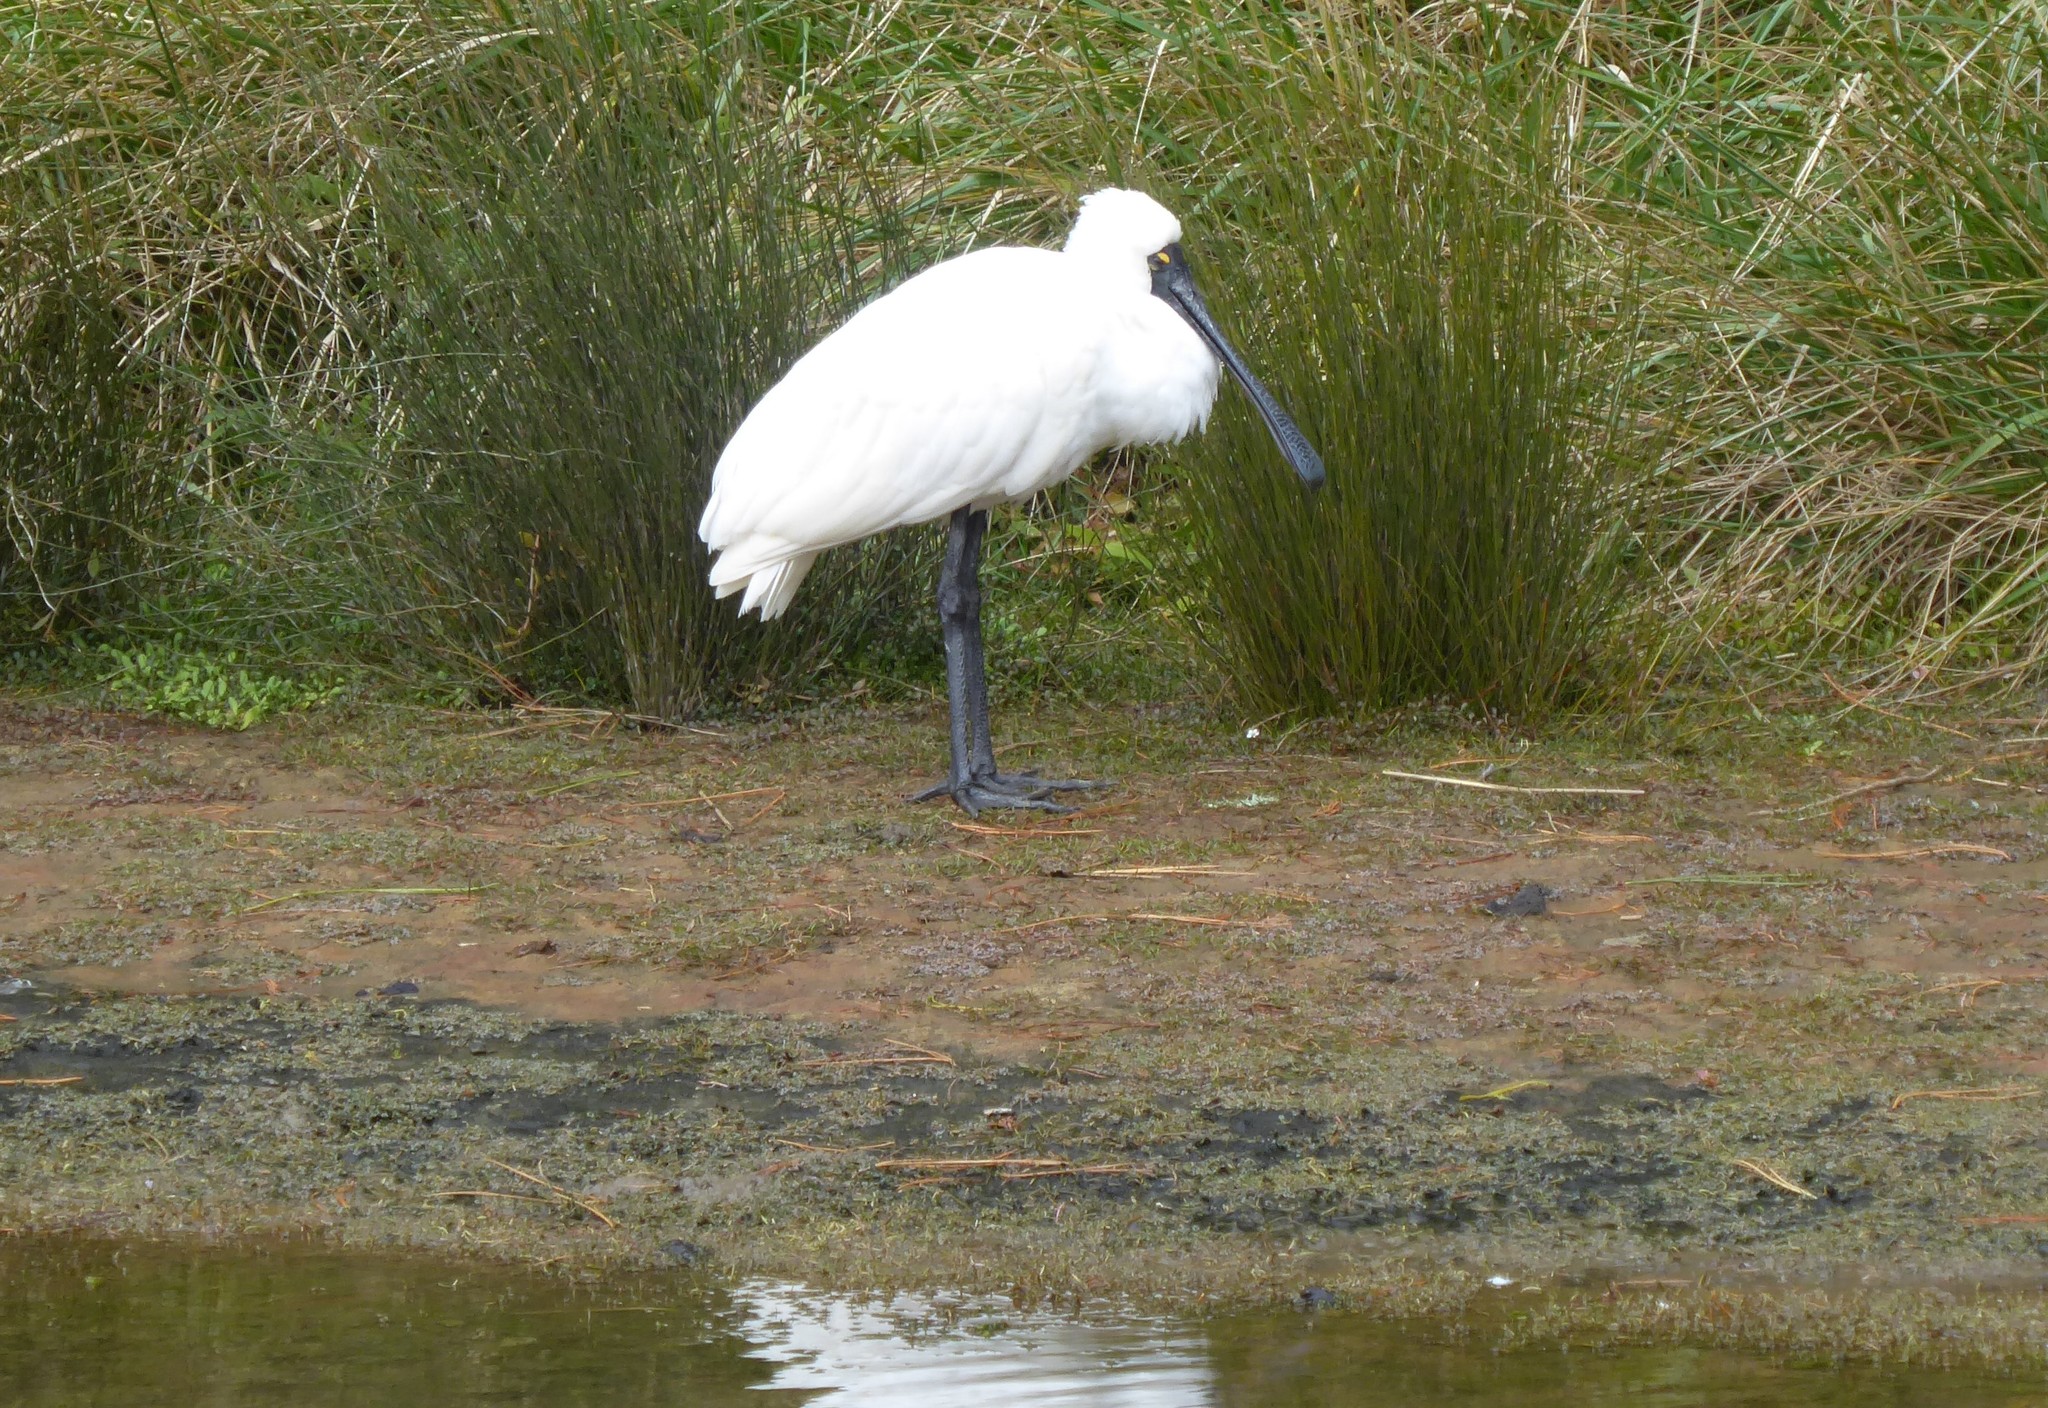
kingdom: Animalia
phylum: Chordata
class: Aves
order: Pelecaniformes
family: Threskiornithidae
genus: Platalea
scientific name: Platalea regia
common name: Royal spoonbill
